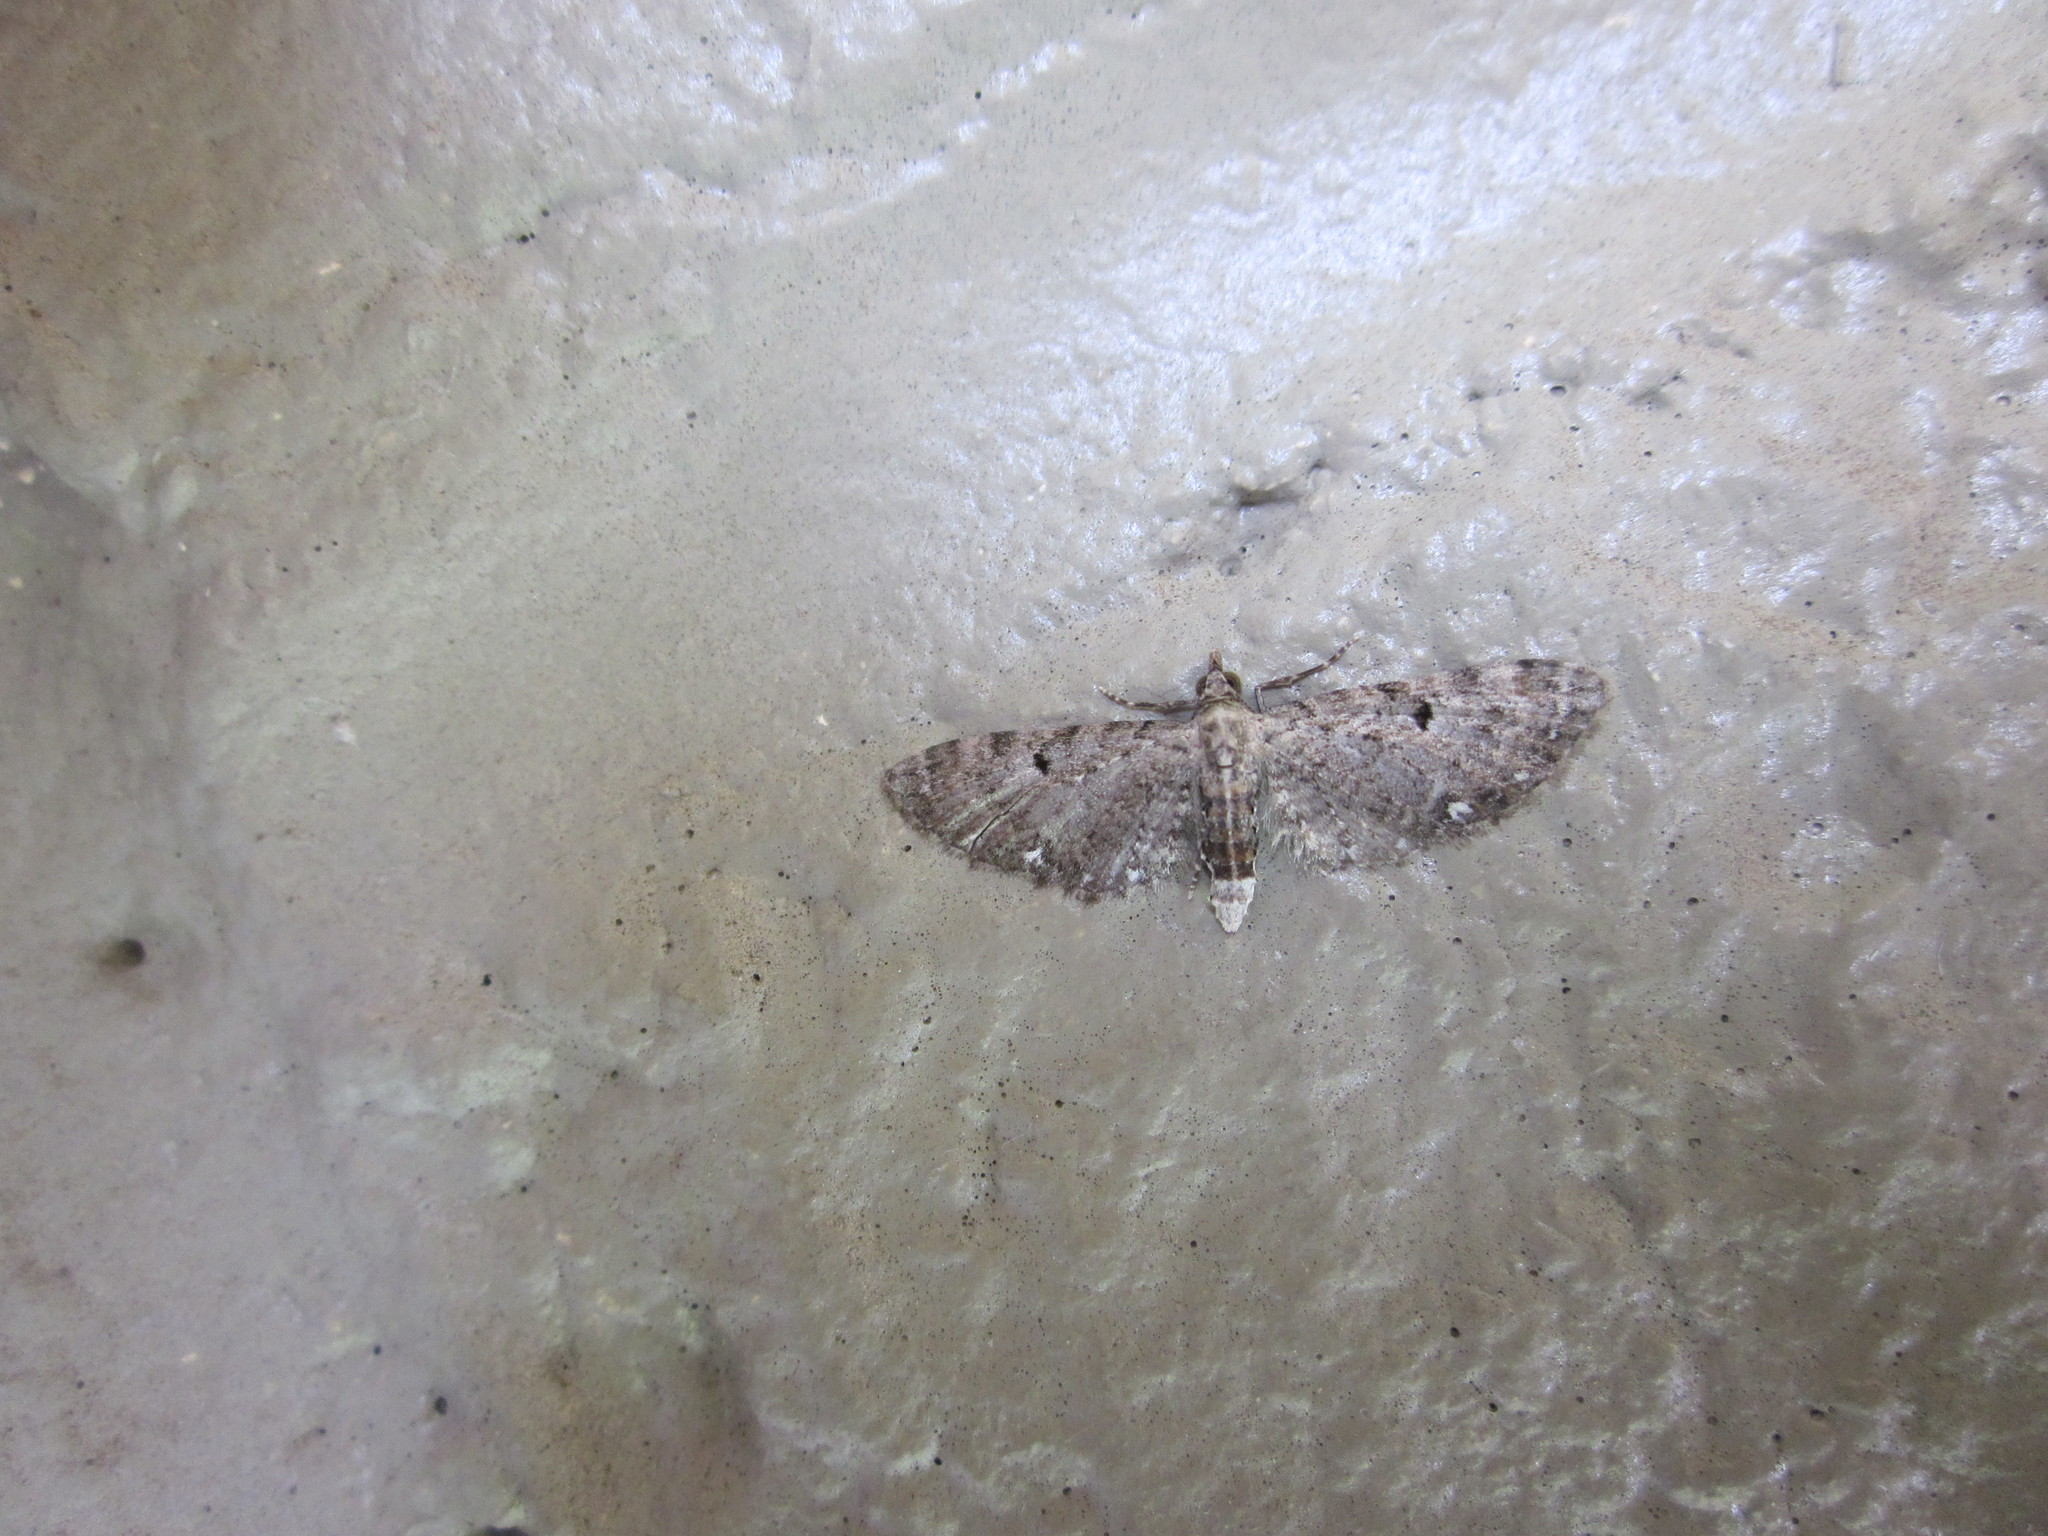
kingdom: Animalia
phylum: Arthropoda
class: Insecta
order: Lepidoptera
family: Geometridae
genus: Eupithecia
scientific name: Eupithecia miserulata
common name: Common eupithecia
